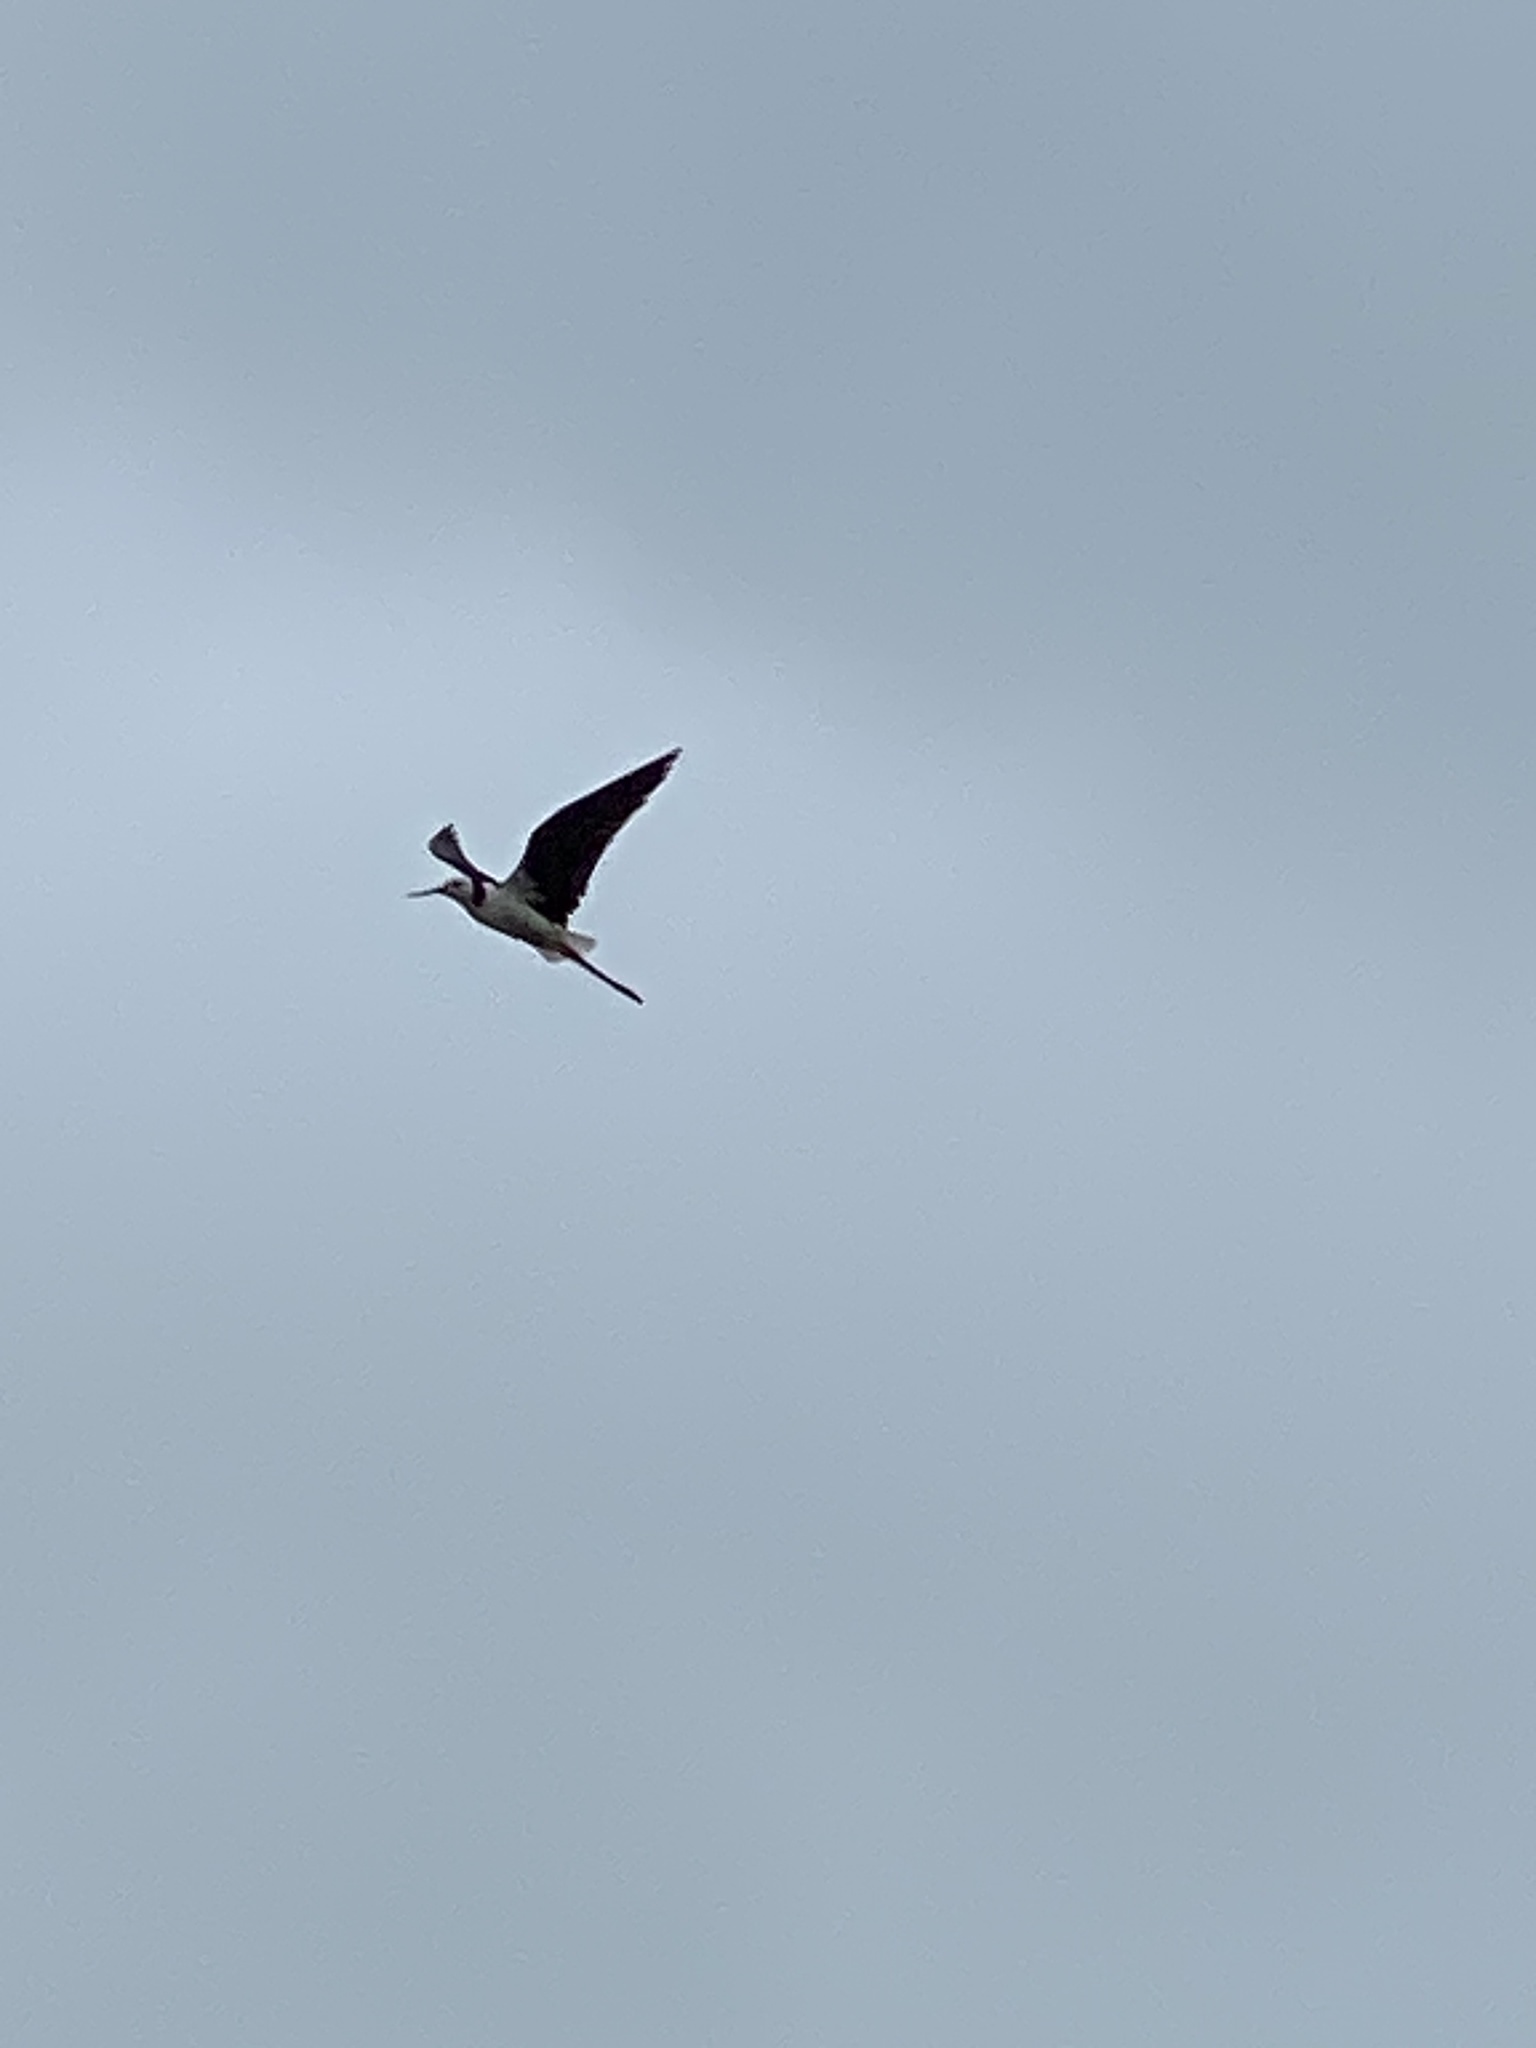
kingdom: Animalia
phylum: Chordata
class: Aves
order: Charadriiformes
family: Recurvirostridae
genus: Himantopus
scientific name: Himantopus leucocephalus
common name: White-headed stilt
